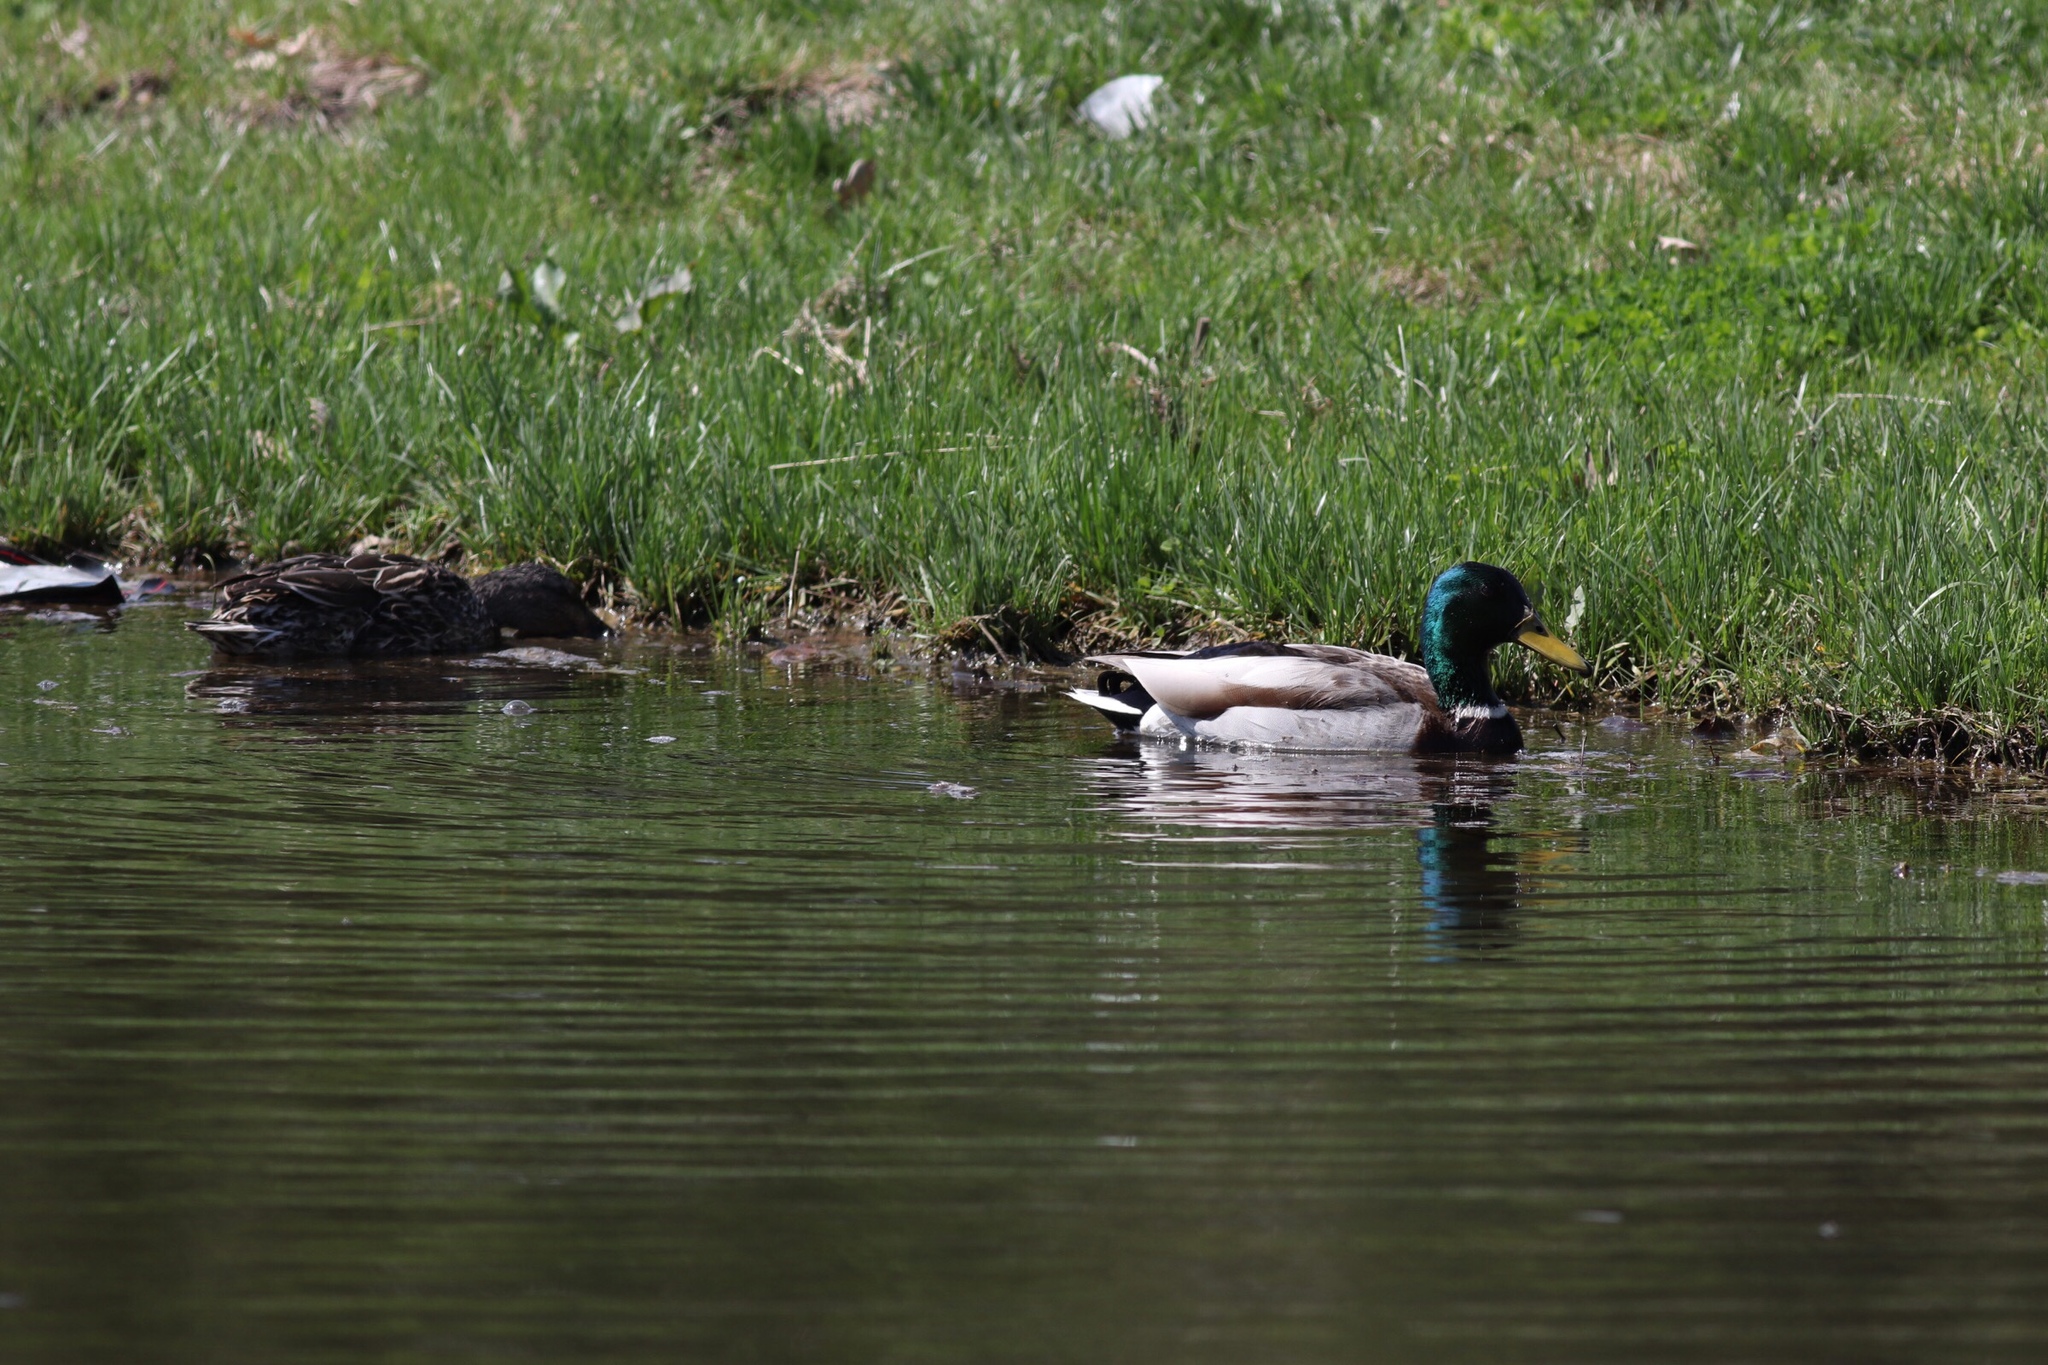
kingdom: Animalia
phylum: Chordata
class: Aves
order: Anseriformes
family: Anatidae
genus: Anas
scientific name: Anas platyrhynchos
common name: Mallard
